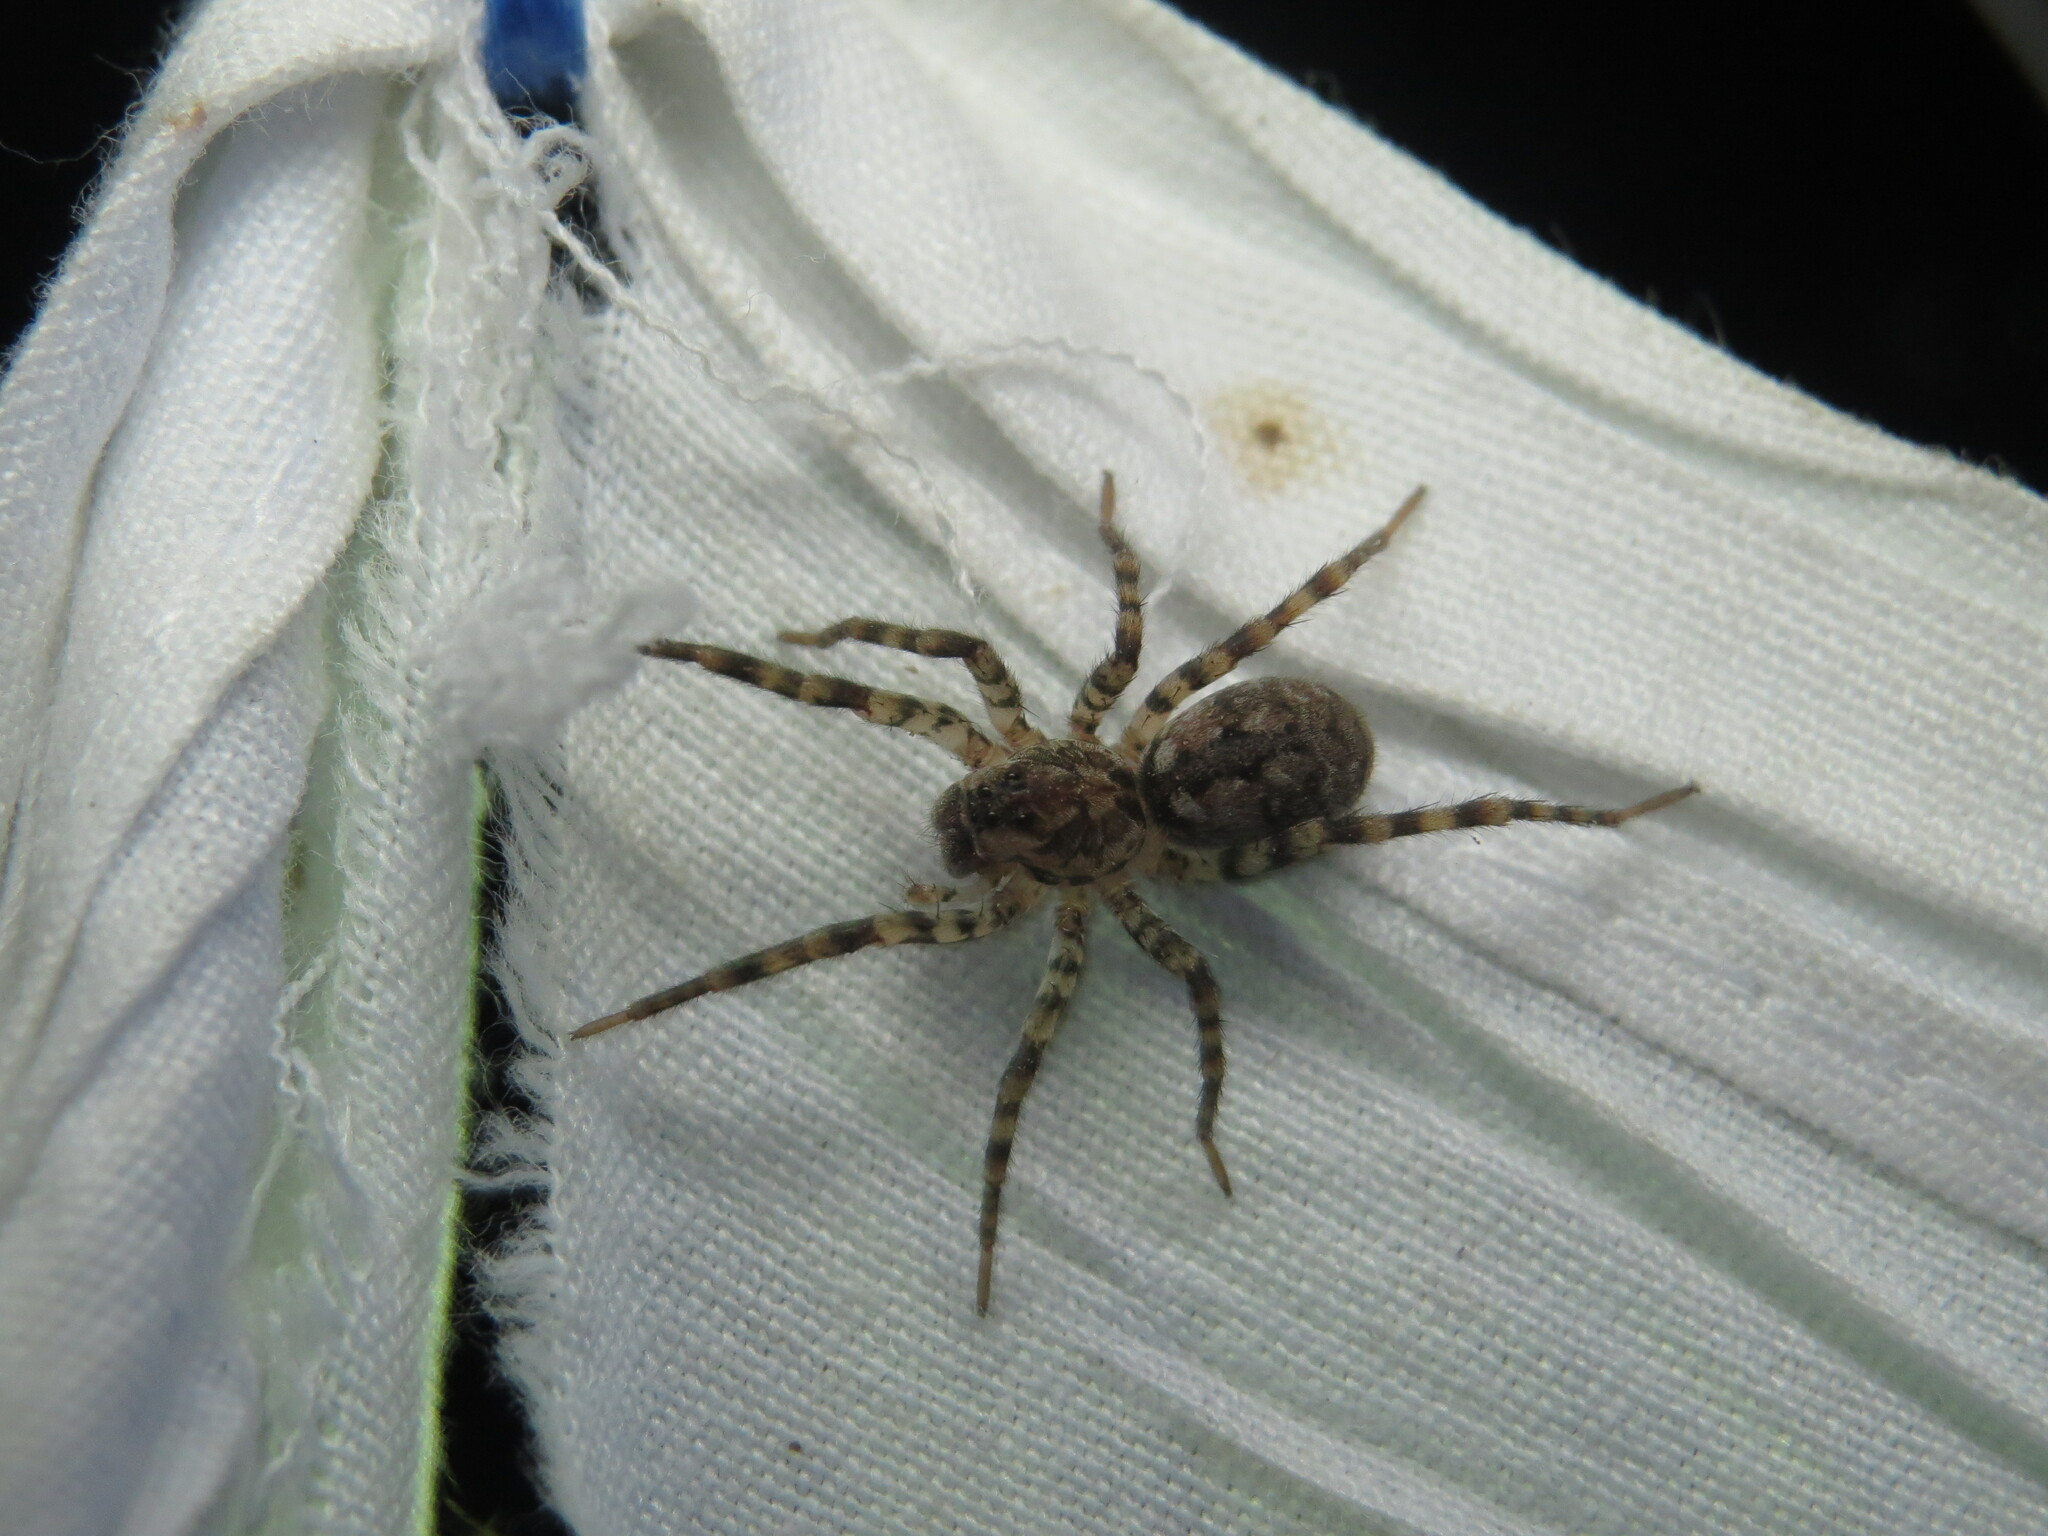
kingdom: Animalia
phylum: Arthropoda
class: Arachnida
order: Araneae
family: Lycosidae
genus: Arctosa
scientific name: Arctosa littoralis
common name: Wolf spiders
